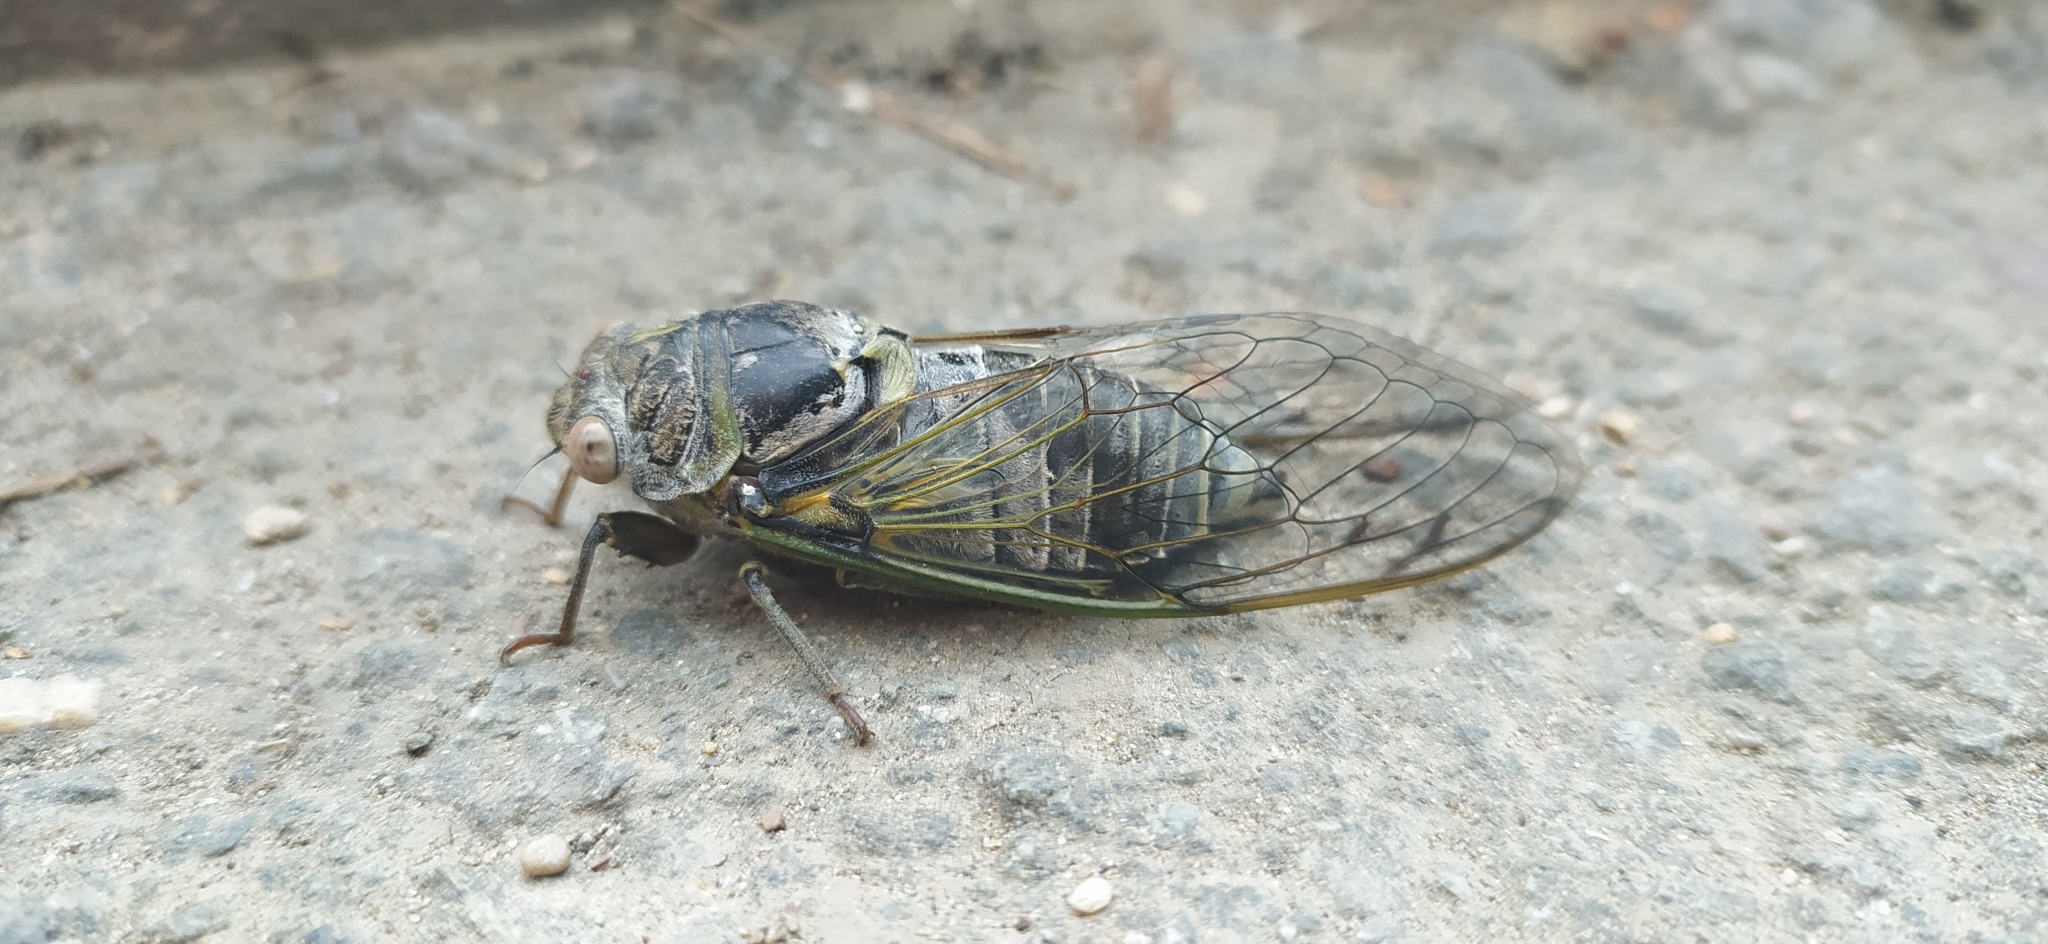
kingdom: Animalia
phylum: Arthropoda
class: Insecta
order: Hemiptera
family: Cicadidae
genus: Lyristes
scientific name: Lyristes plebejus
